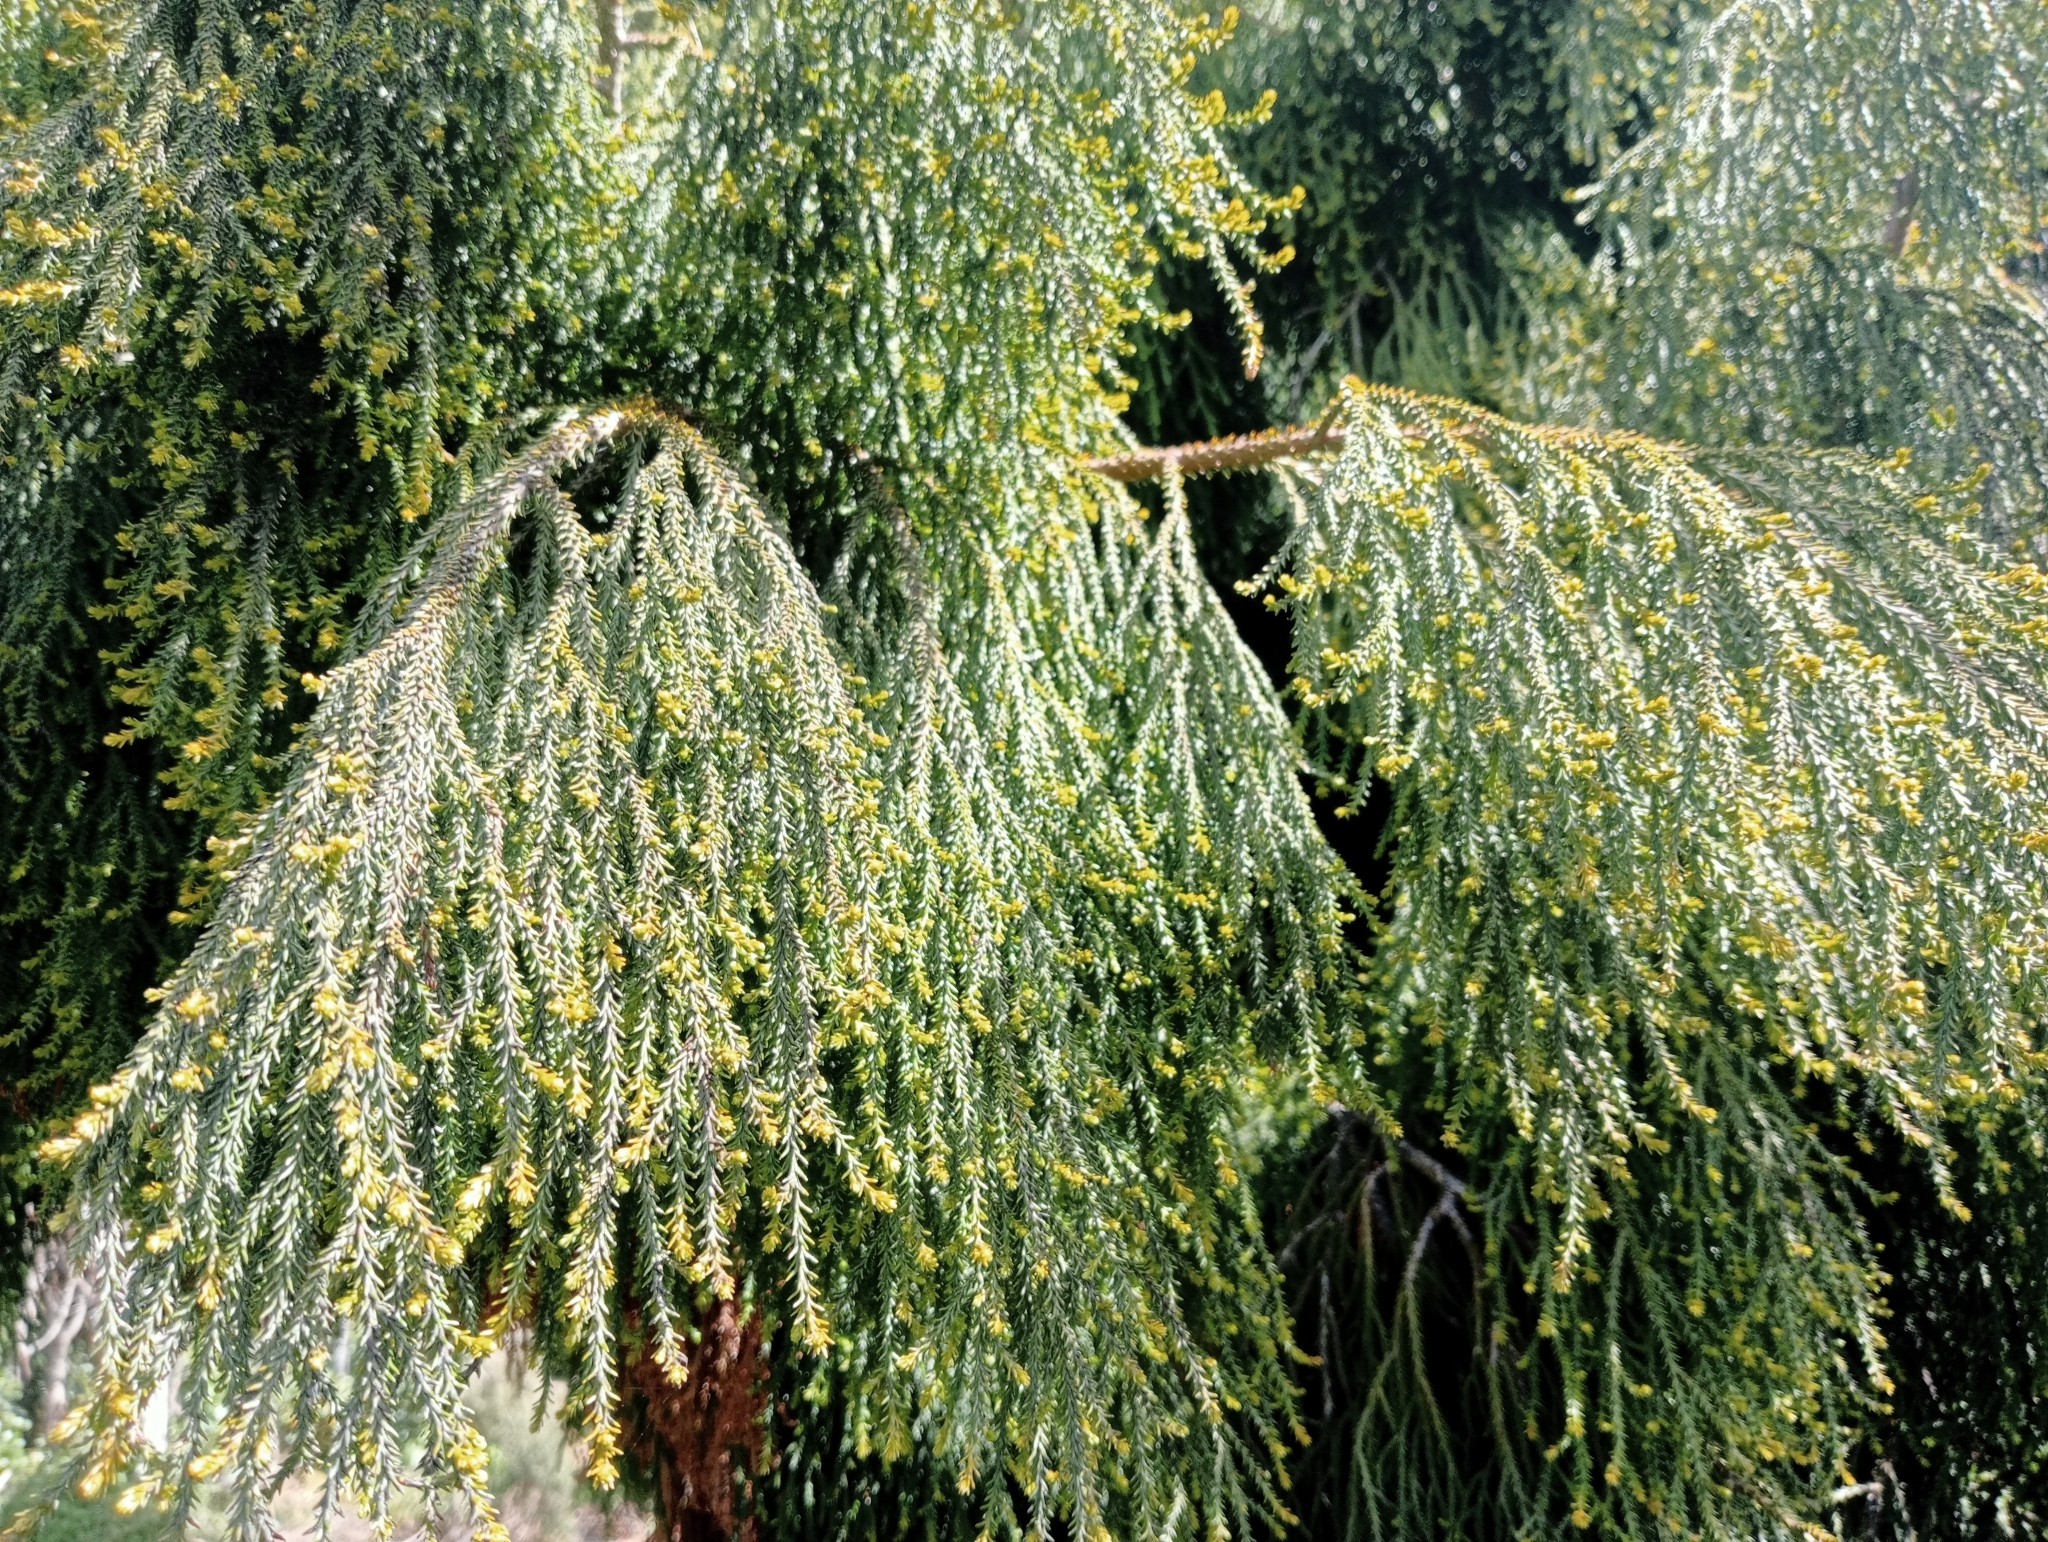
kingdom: Plantae
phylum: Tracheophyta
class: Pinopsida
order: Pinales
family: Podocarpaceae
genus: Dacrydium
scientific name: Dacrydium cupressinum
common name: Red pine
